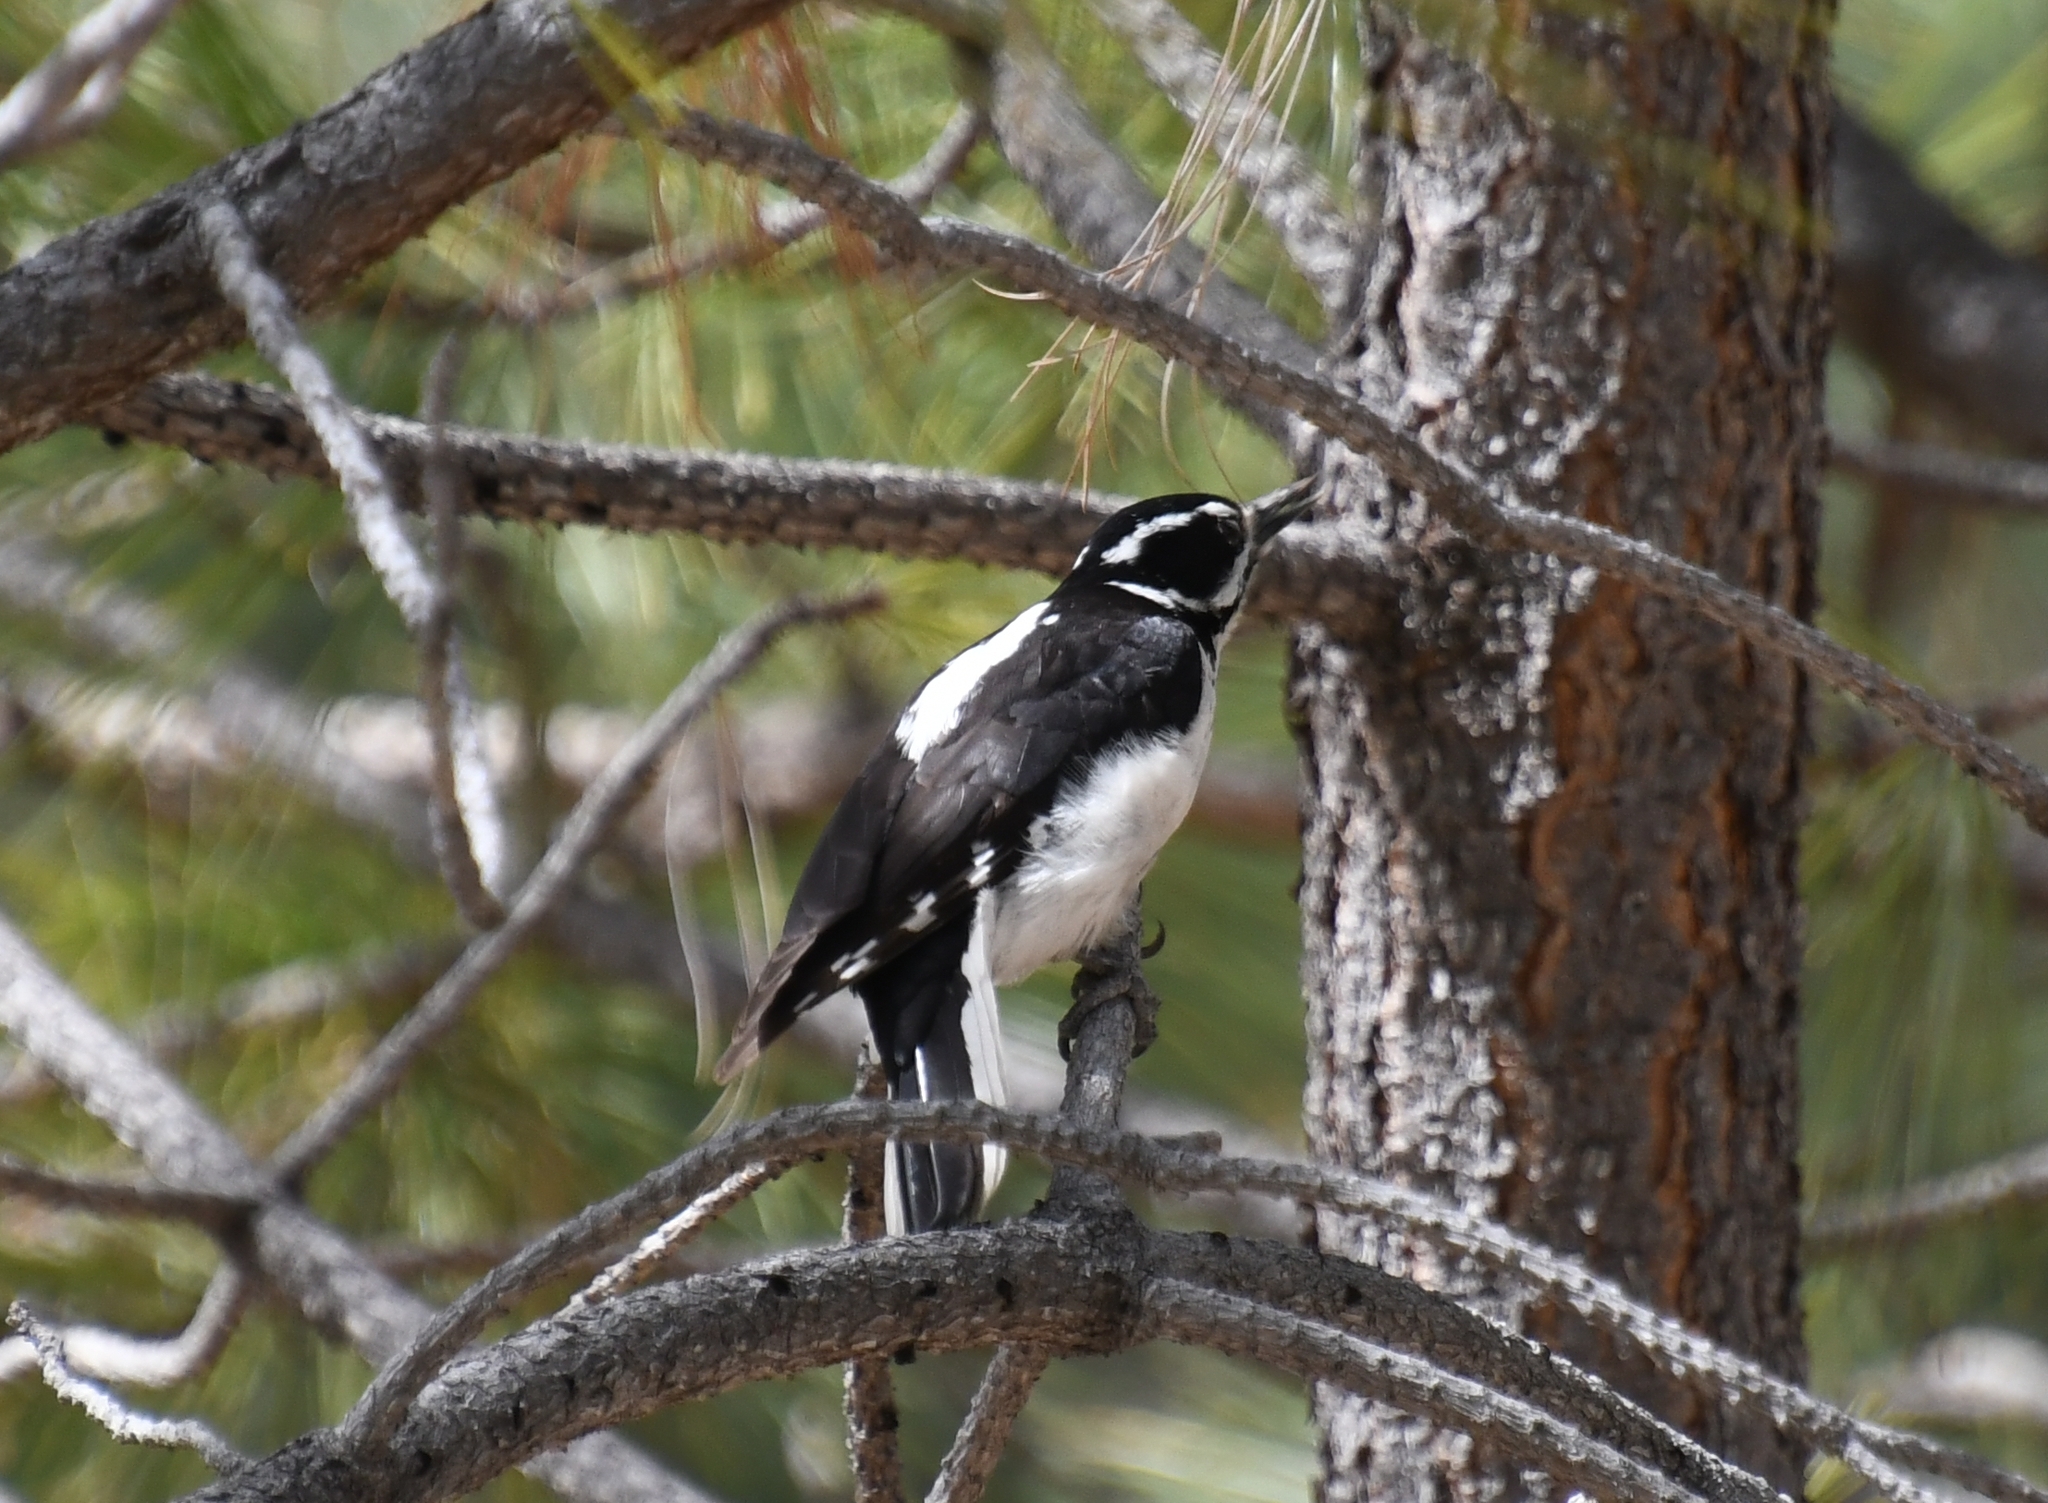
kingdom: Animalia
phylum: Chordata
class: Aves
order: Piciformes
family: Picidae
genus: Leuconotopicus
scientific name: Leuconotopicus villosus
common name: Hairy woodpecker
